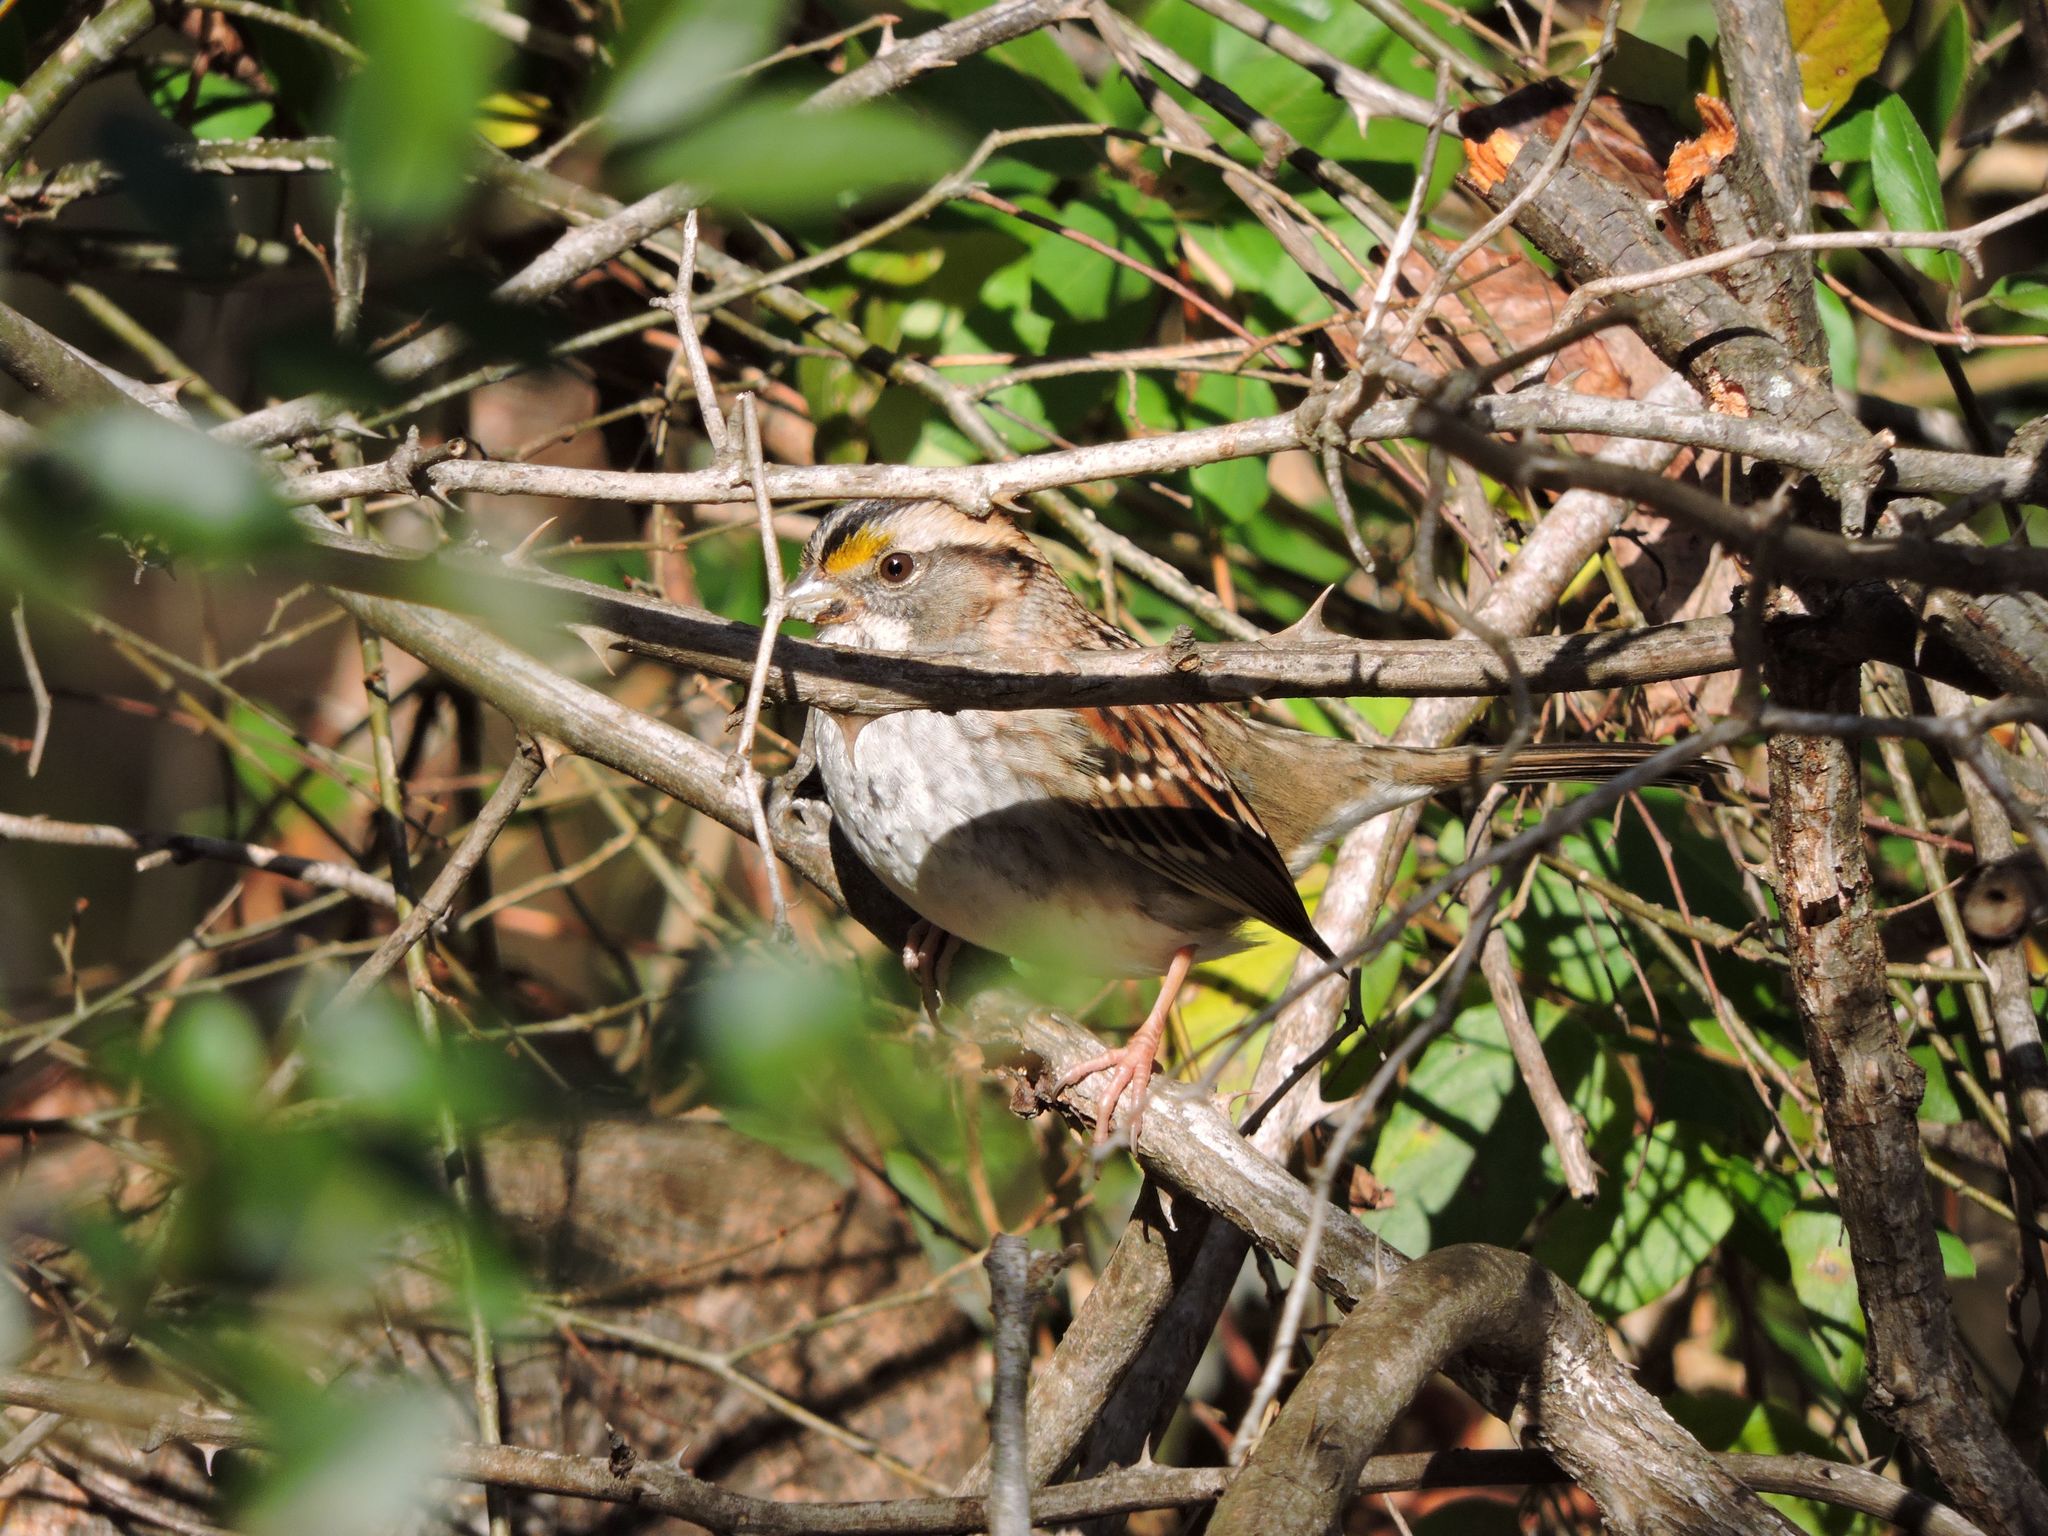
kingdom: Animalia
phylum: Chordata
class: Aves
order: Passeriformes
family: Passerellidae
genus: Zonotrichia
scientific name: Zonotrichia albicollis
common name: White-throated sparrow
